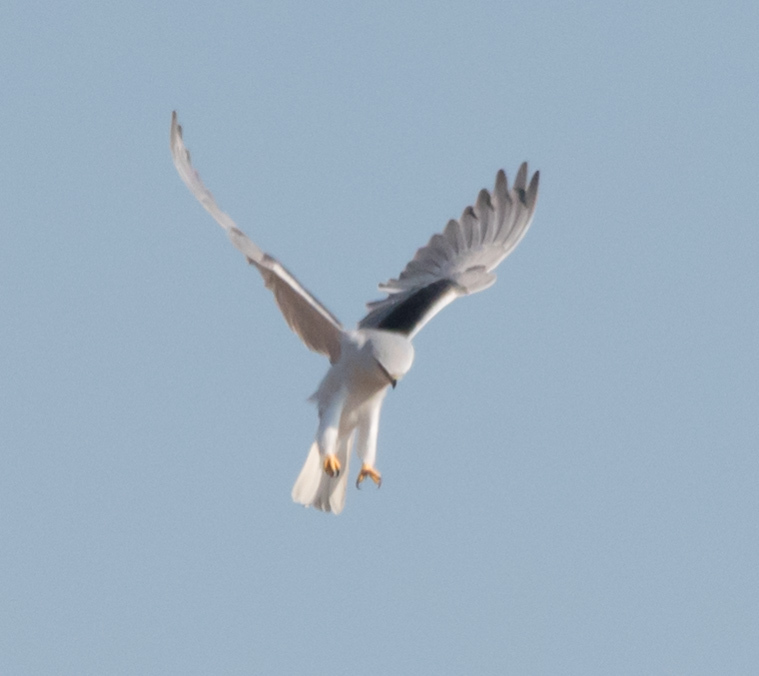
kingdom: Animalia
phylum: Chordata
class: Aves
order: Accipitriformes
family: Accipitridae
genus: Elanus
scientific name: Elanus caeruleus
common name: Black-winged kite
